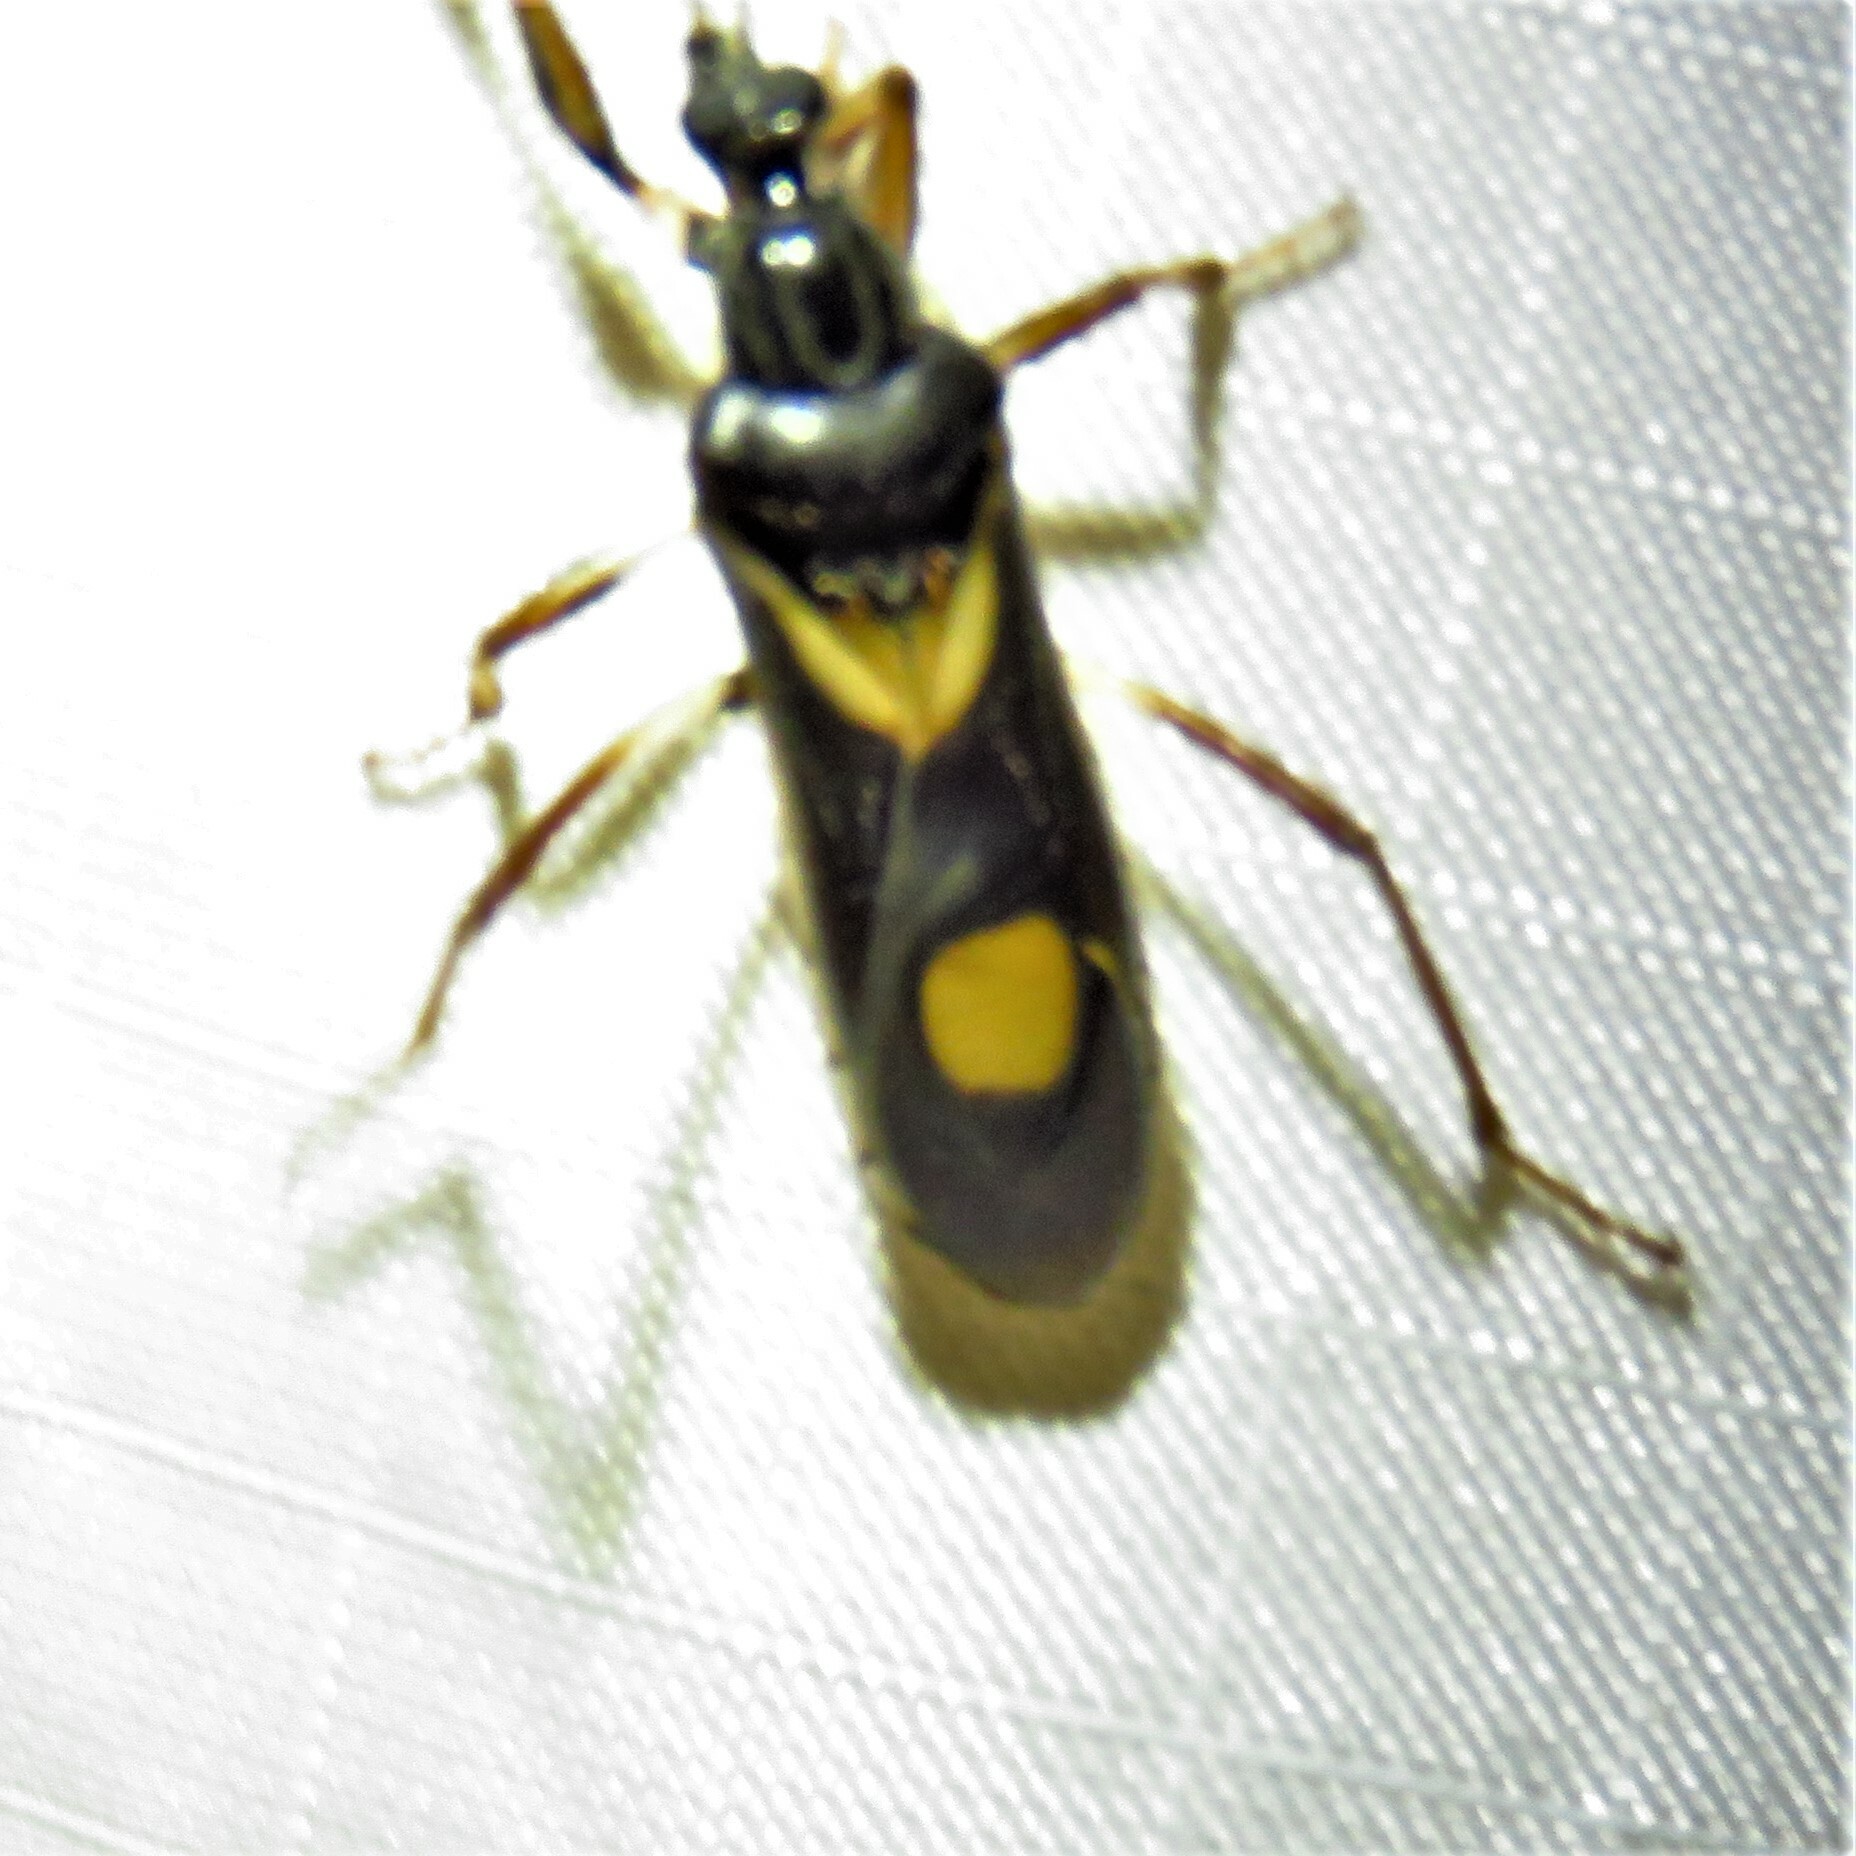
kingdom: Animalia
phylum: Arthropoda
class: Insecta
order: Hemiptera
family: Reduviidae
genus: Rasahus
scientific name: Rasahus hamatus
